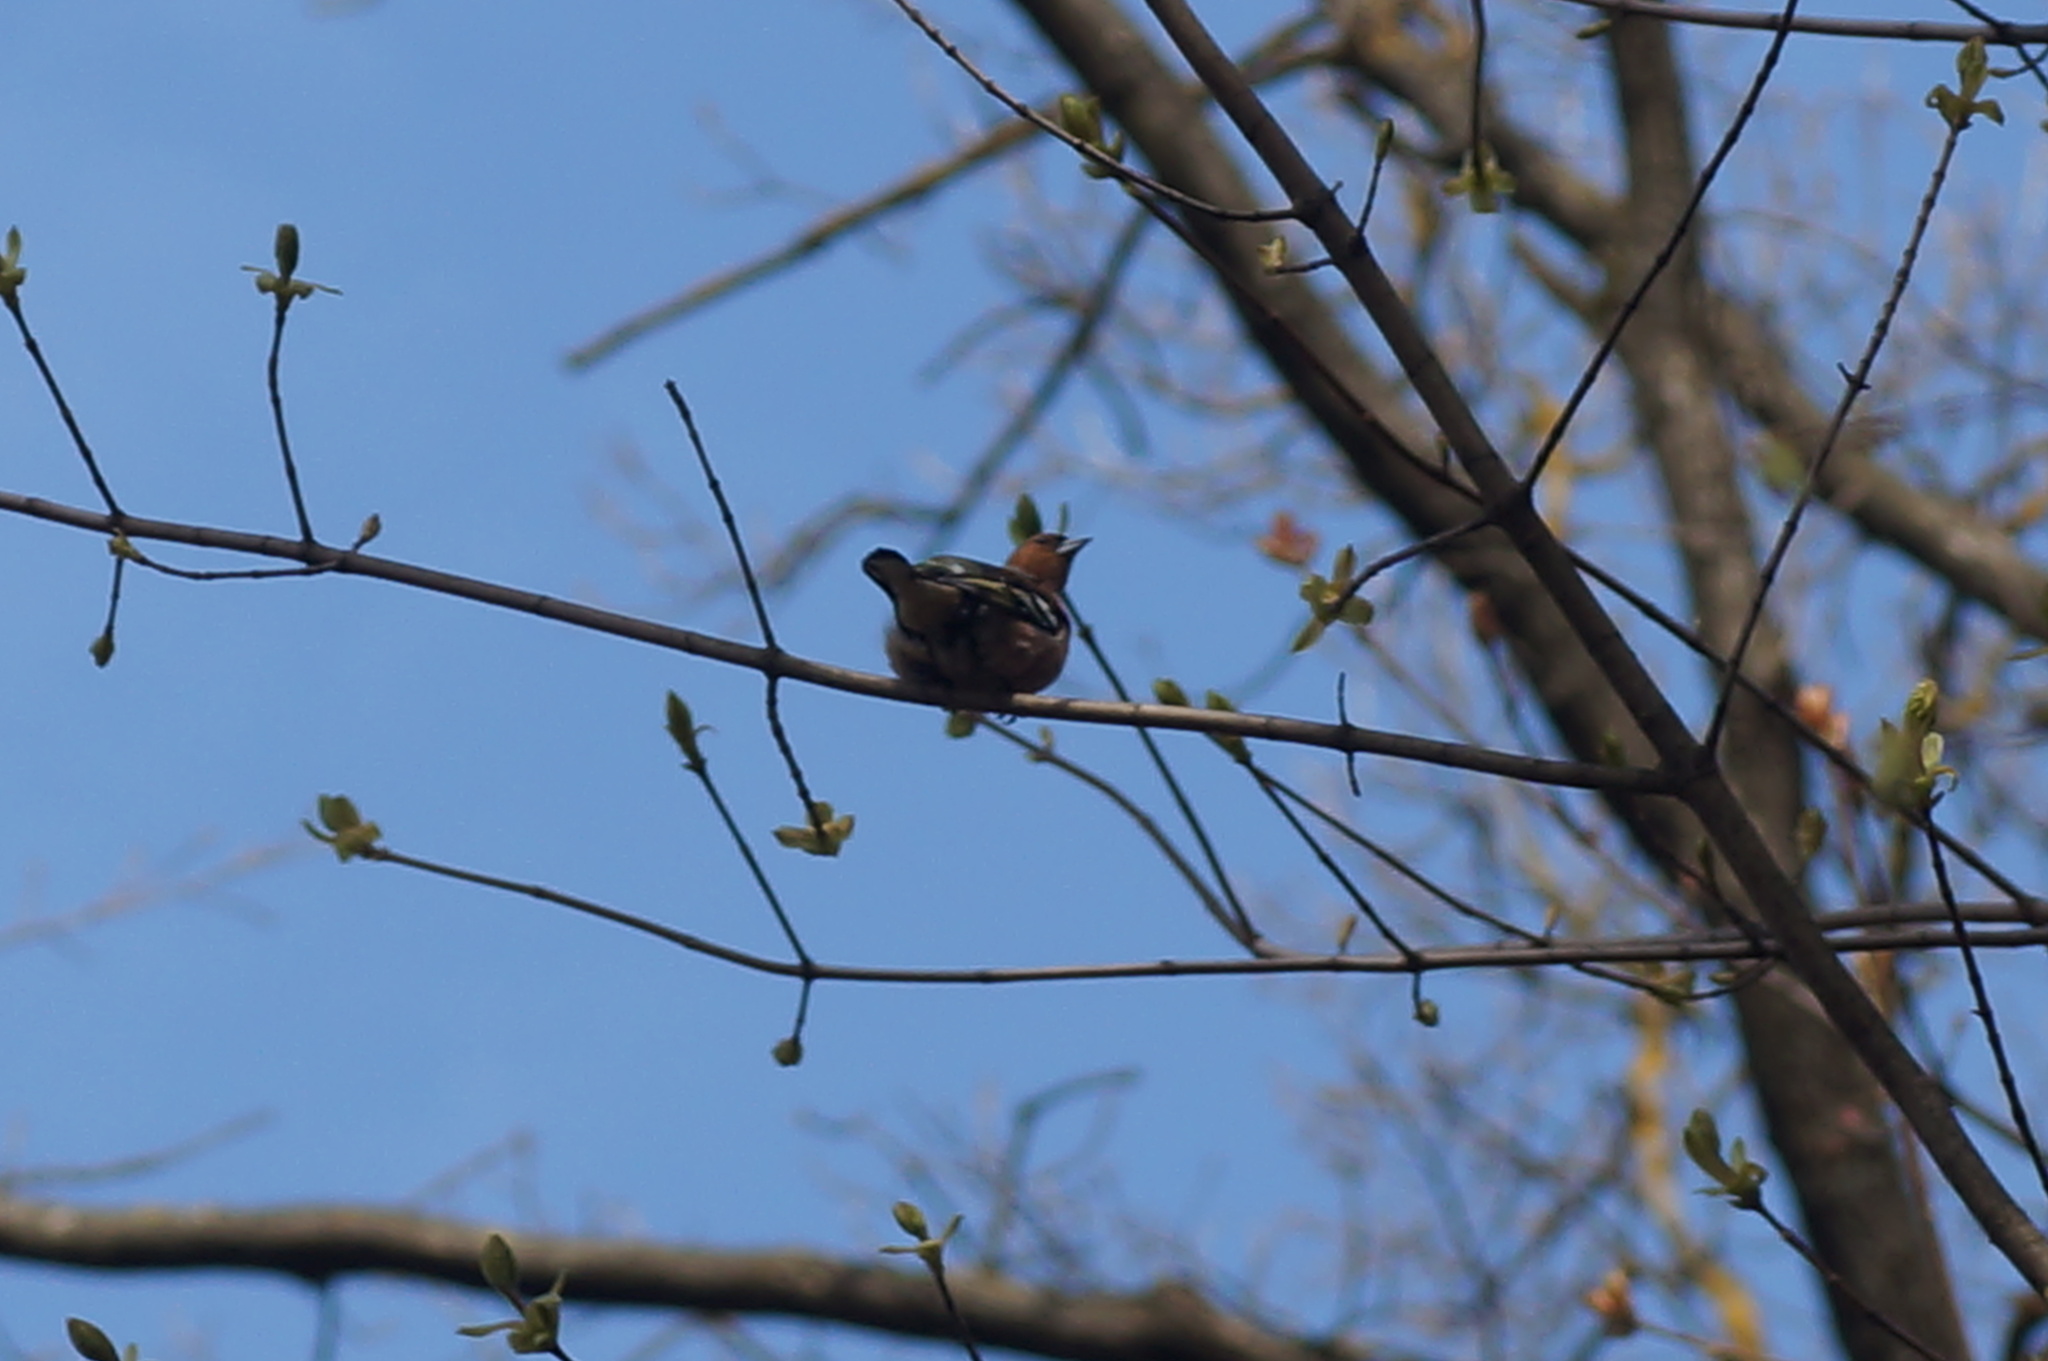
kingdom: Animalia
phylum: Chordata
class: Aves
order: Passeriformes
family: Fringillidae
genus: Fringilla
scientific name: Fringilla coelebs
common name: Common chaffinch
